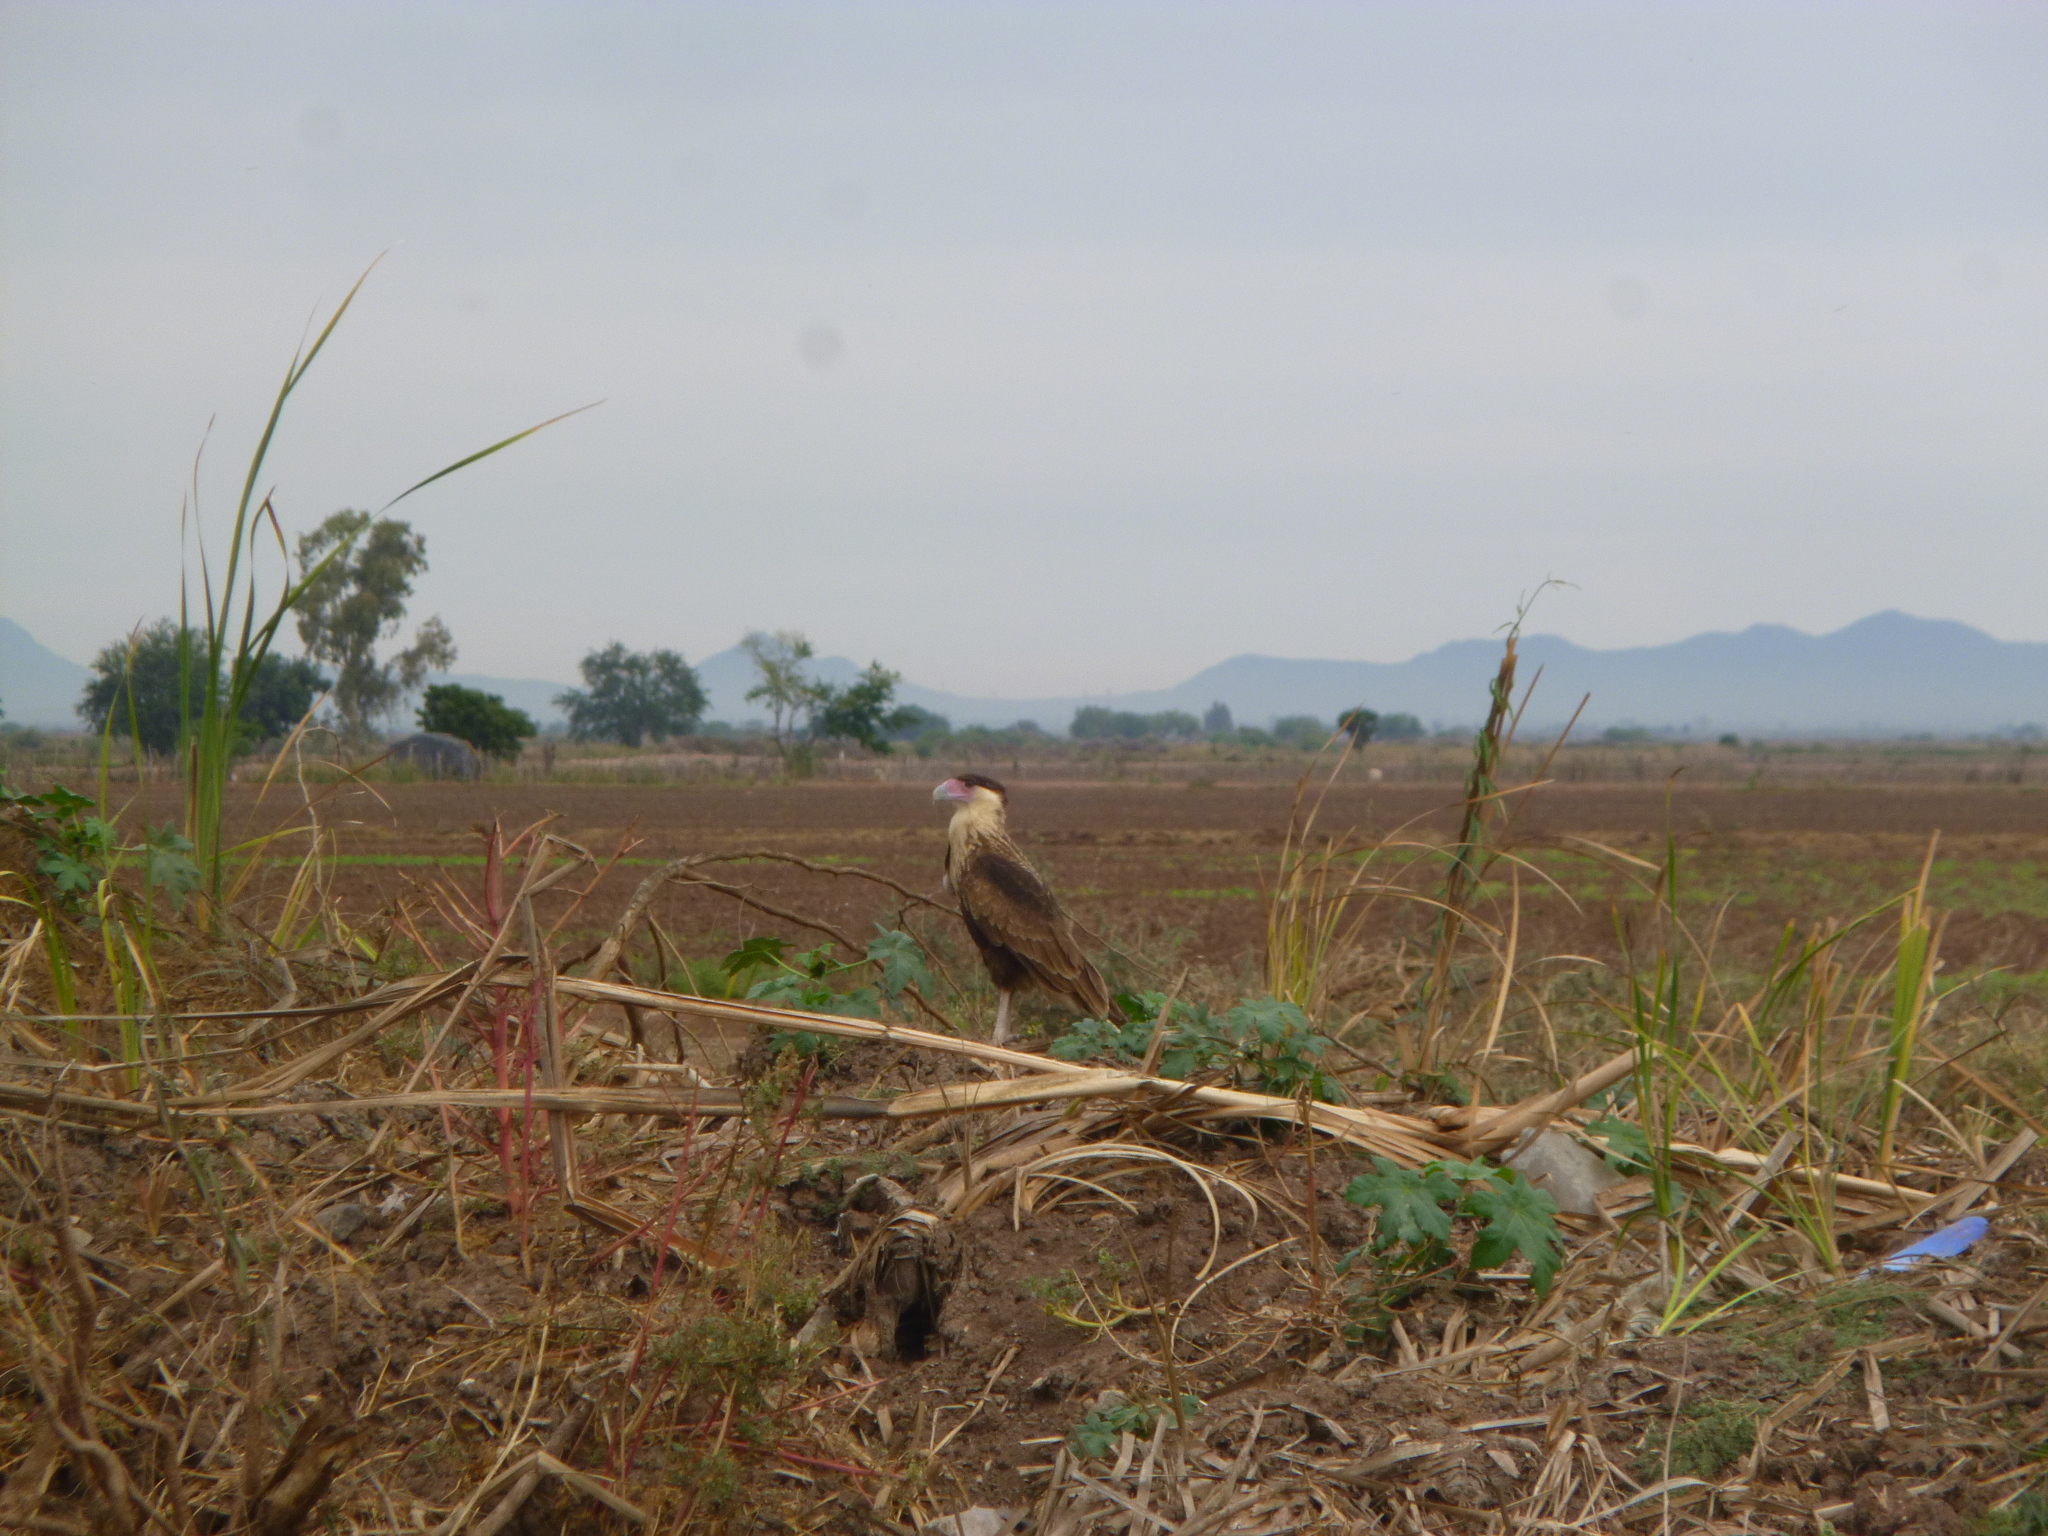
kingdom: Animalia
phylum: Chordata
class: Aves
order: Falconiformes
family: Falconidae
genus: Caracara
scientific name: Caracara plancus
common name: Southern caracara
